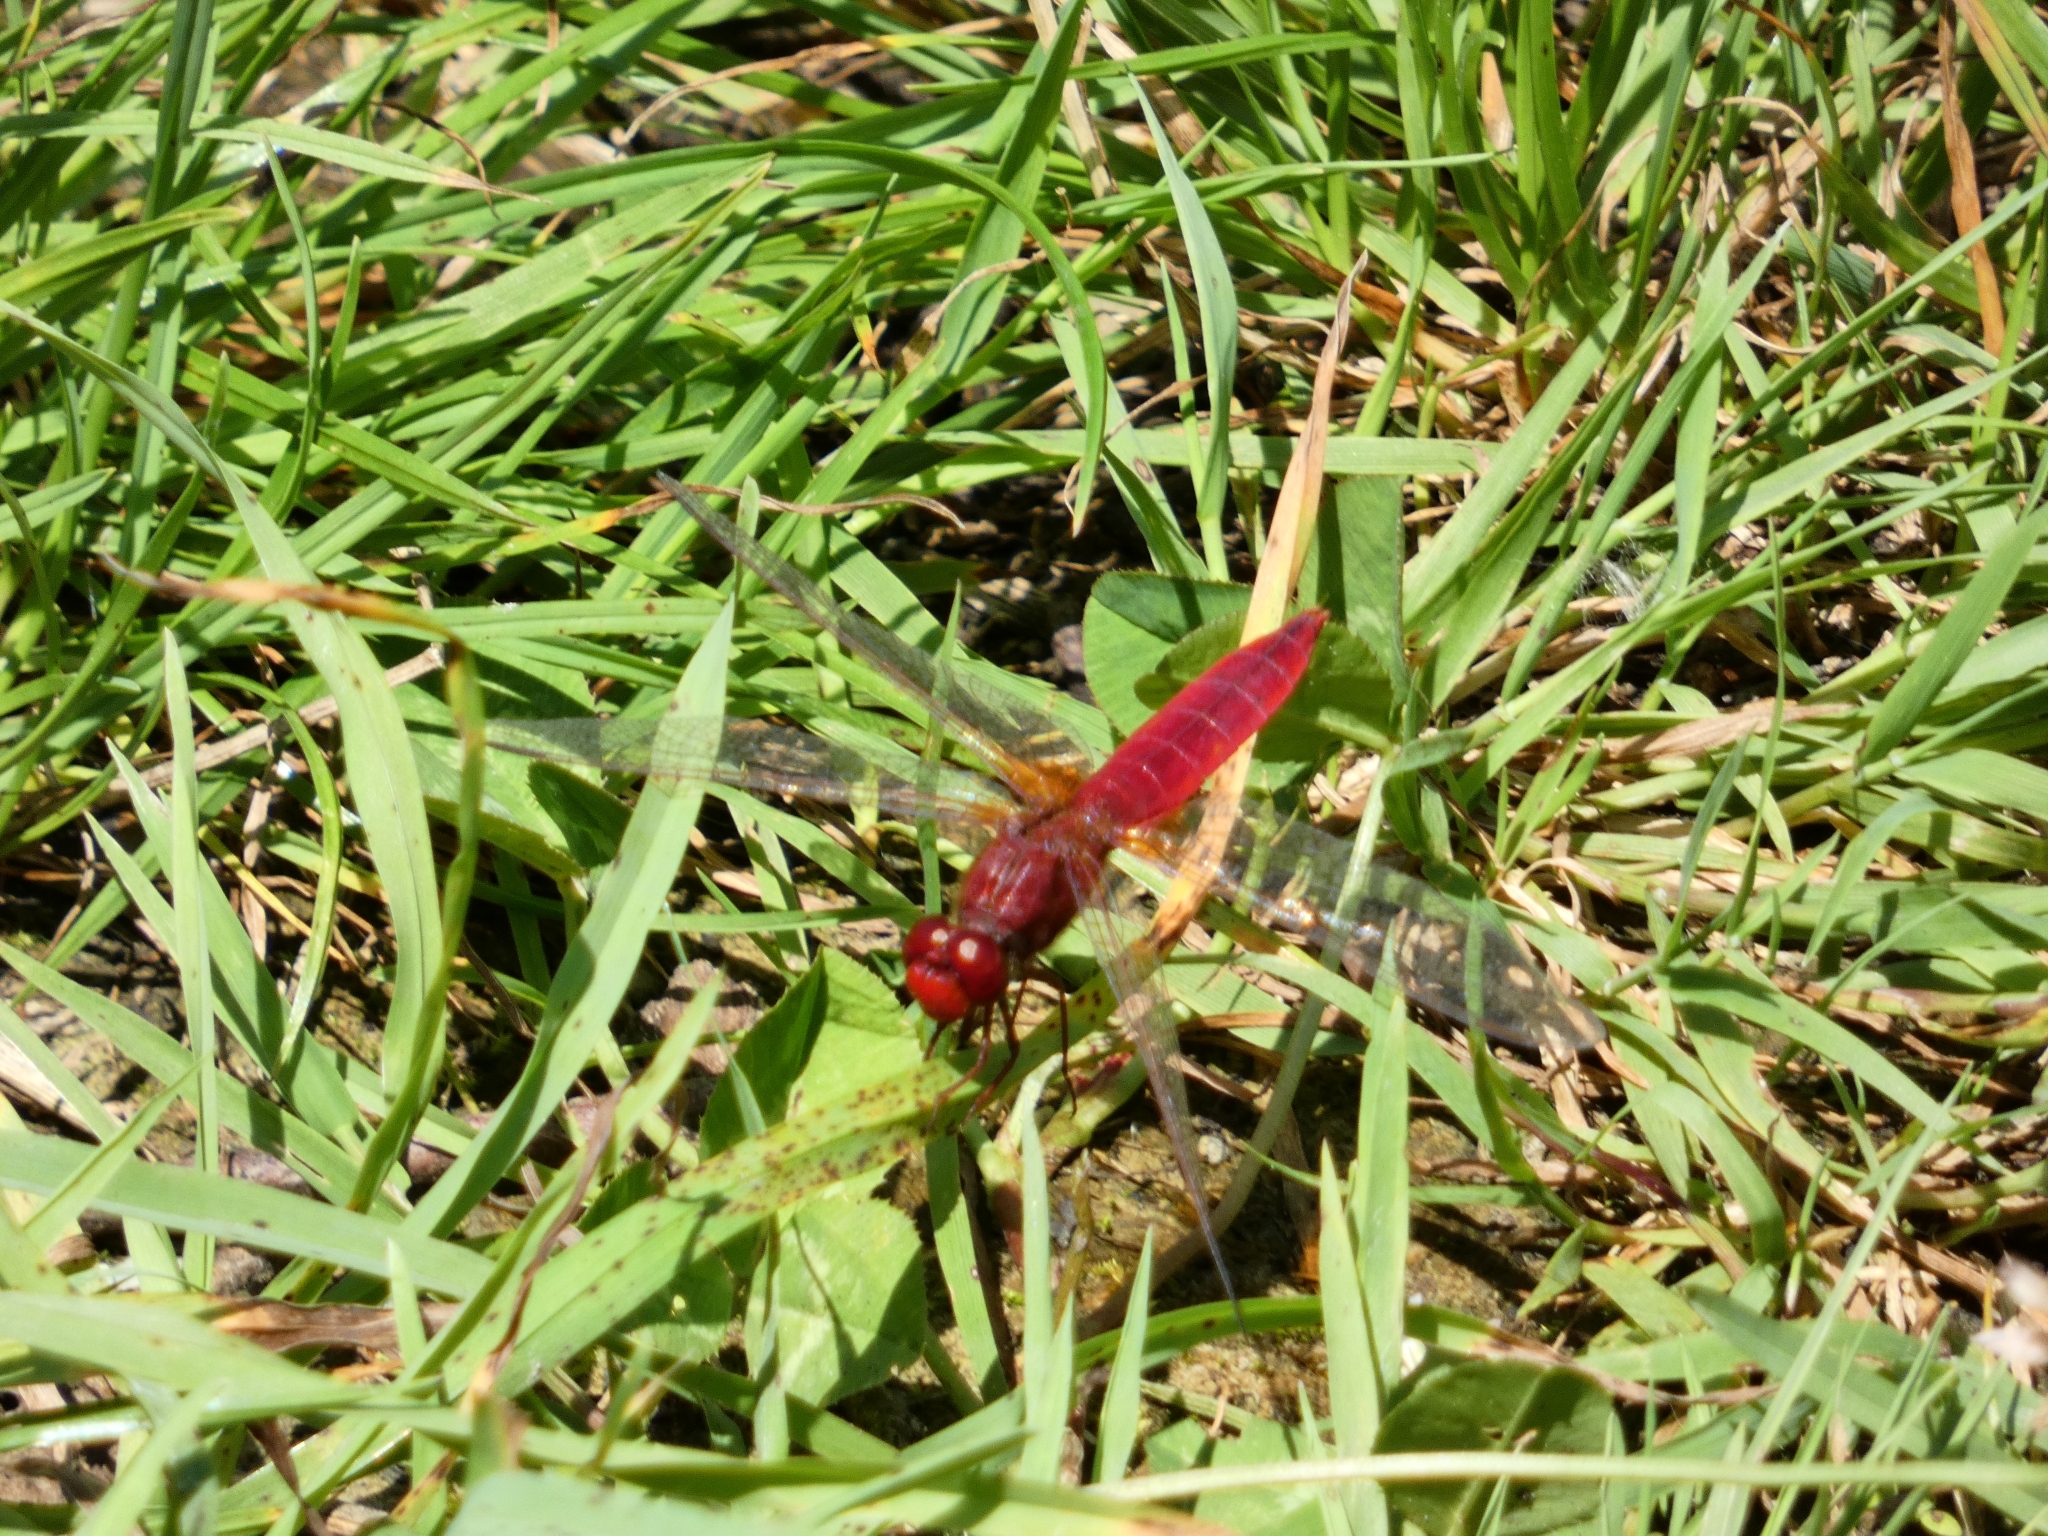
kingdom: Animalia
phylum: Arthropoda
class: Insecta
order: Odonata
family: Libellulidae
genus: Crocothemis
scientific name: Crocothemis erythraea
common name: Scarlet dragonfly
